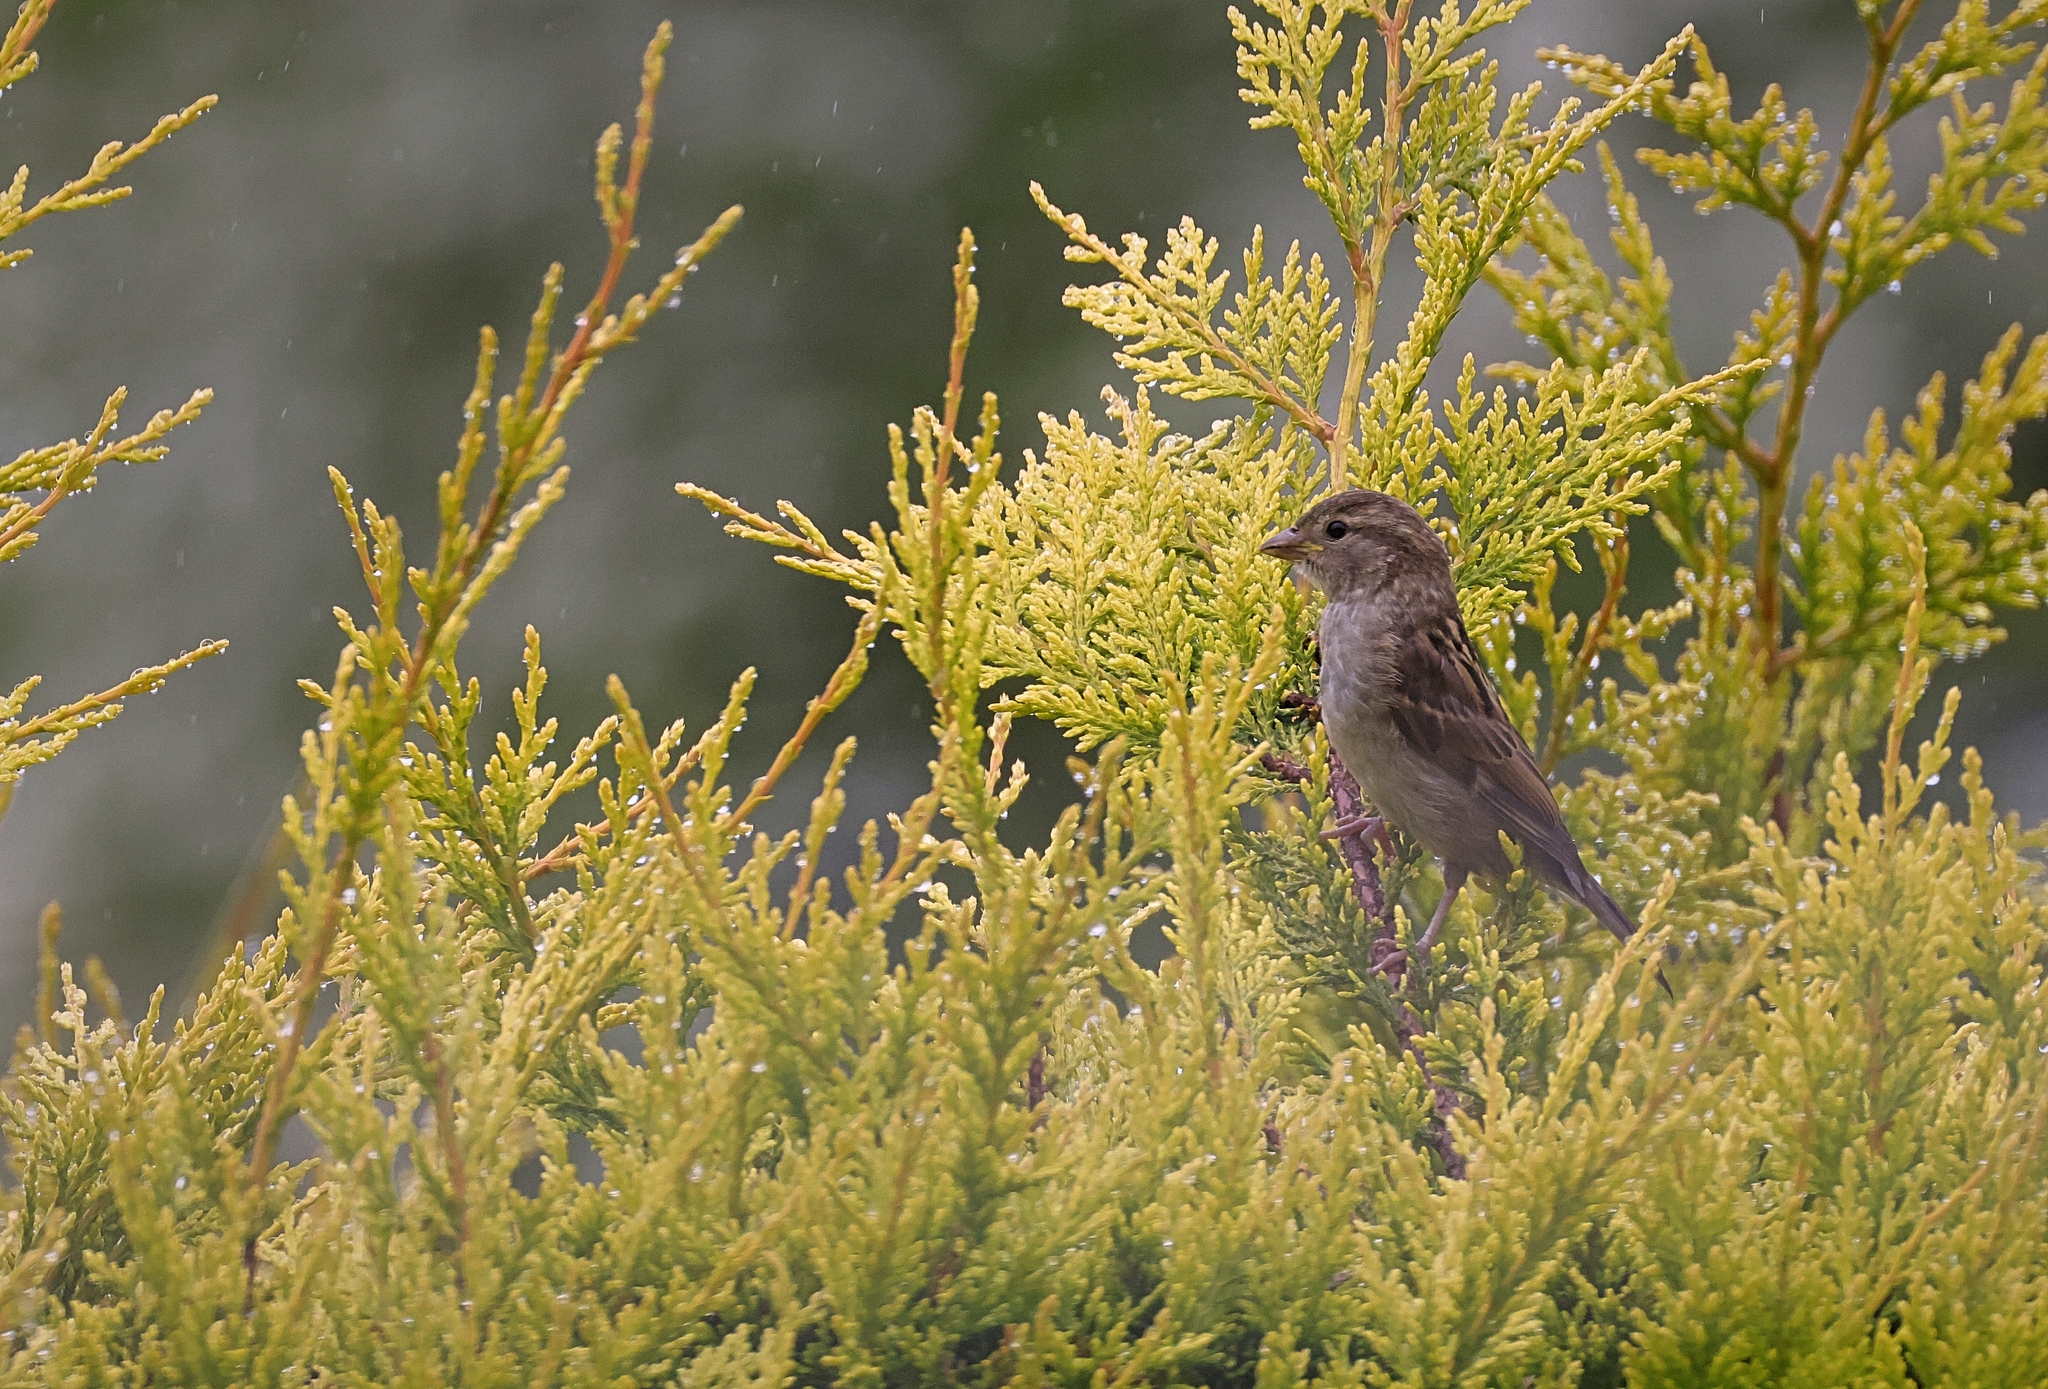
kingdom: Animalia
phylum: Chordata
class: Aves
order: Passeriformes
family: Passeridae
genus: Passer
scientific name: Passer domesticus
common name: House sparrow
